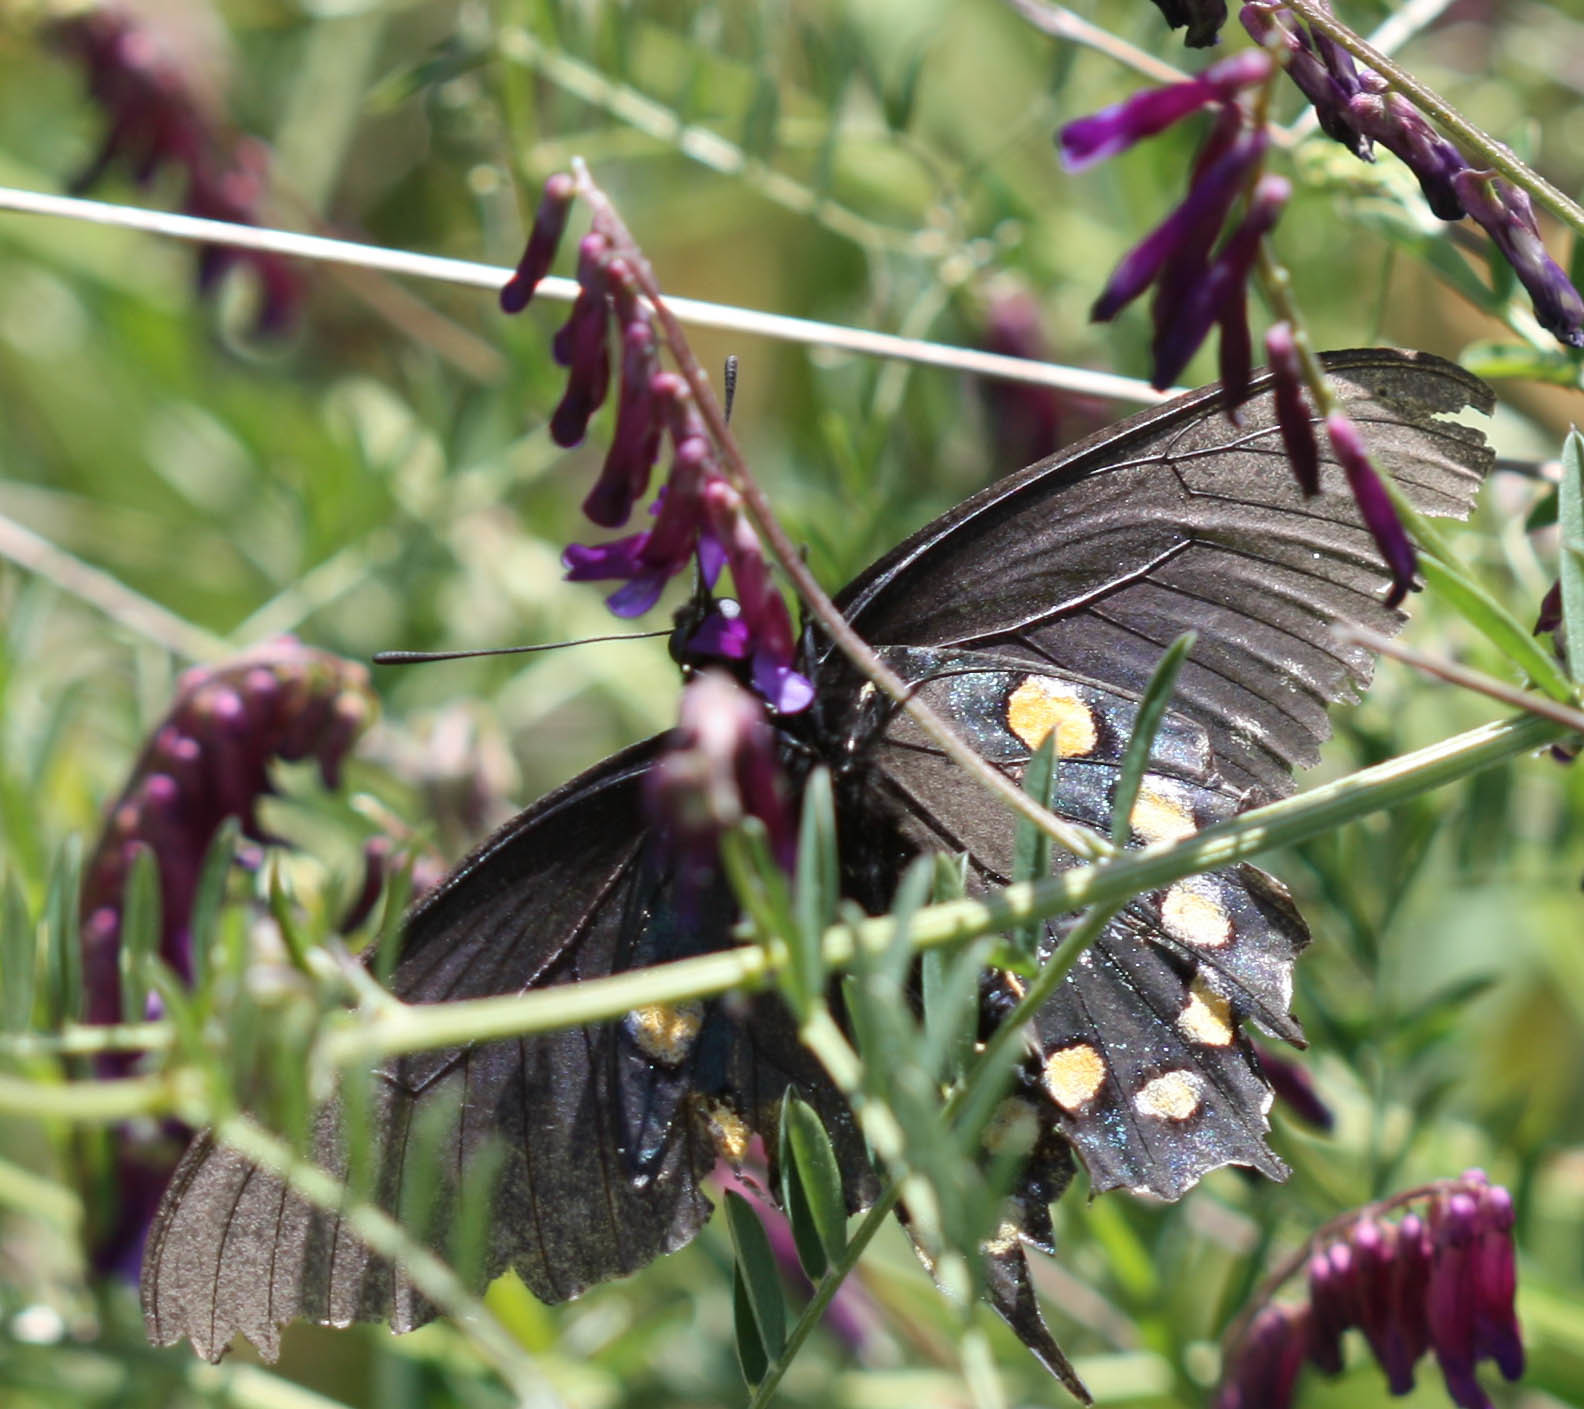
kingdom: Animalia
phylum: Arthropoda
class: Insecta
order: Lepidoptera
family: Papilionidae
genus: Battus
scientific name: Battus philenor
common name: Pipevine swallowtail
